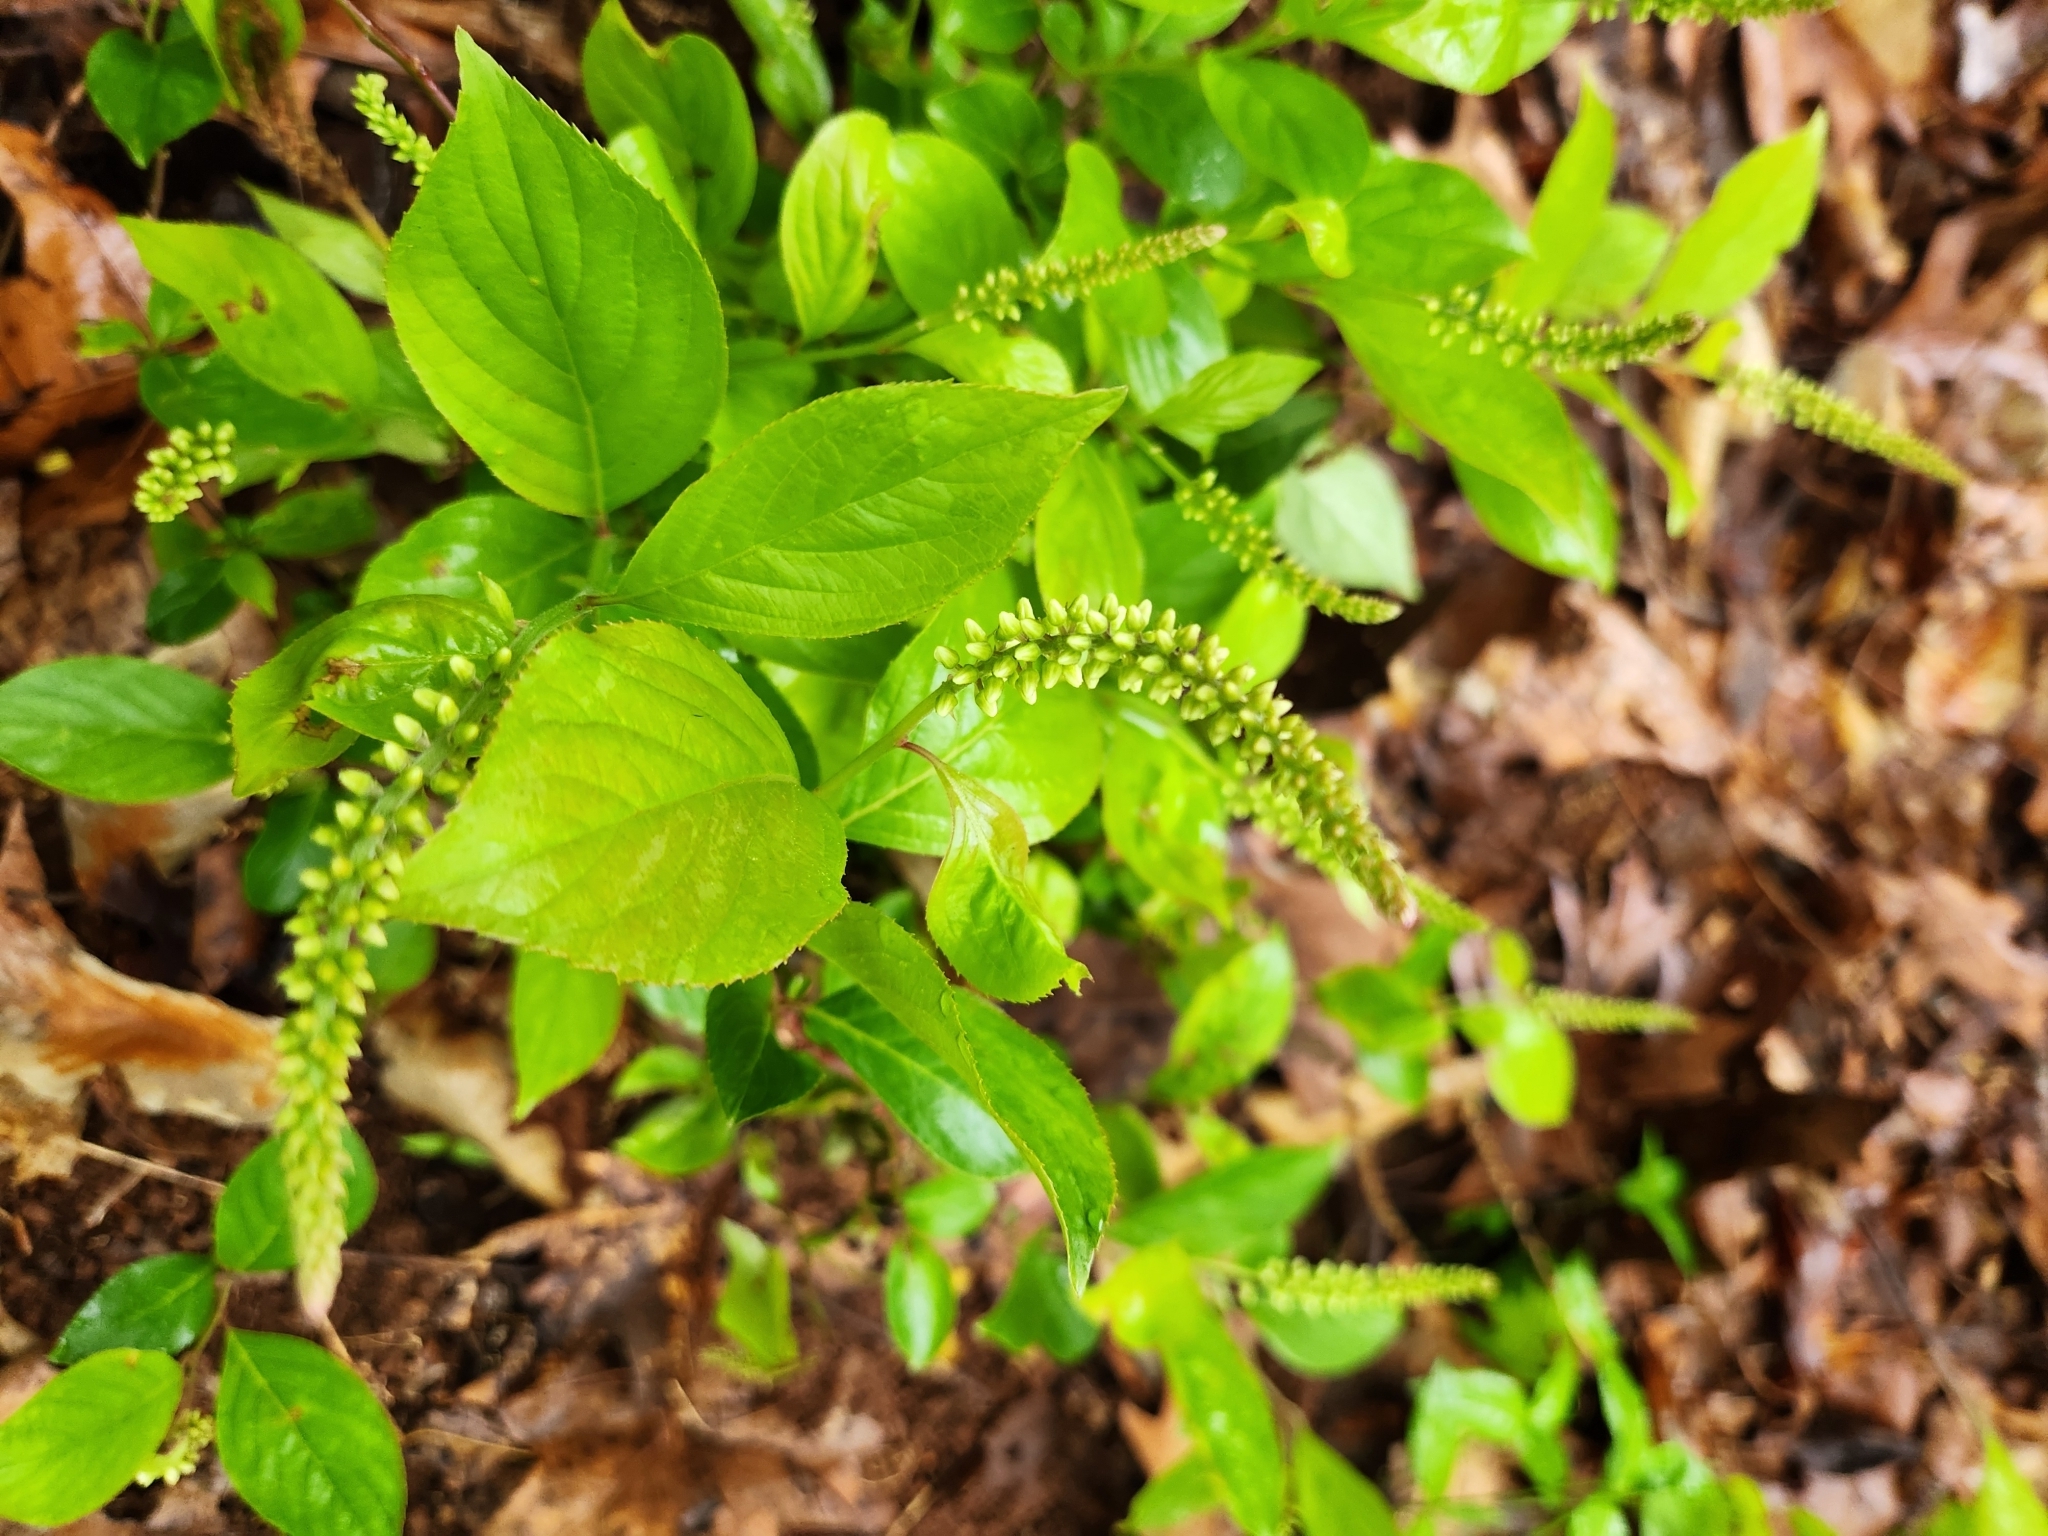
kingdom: Plantae
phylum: Tracheophyta
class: Magnoliopsida
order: Saxifragales
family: Iteaceae
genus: Itea
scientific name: Itea virginica
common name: Sweetspire
